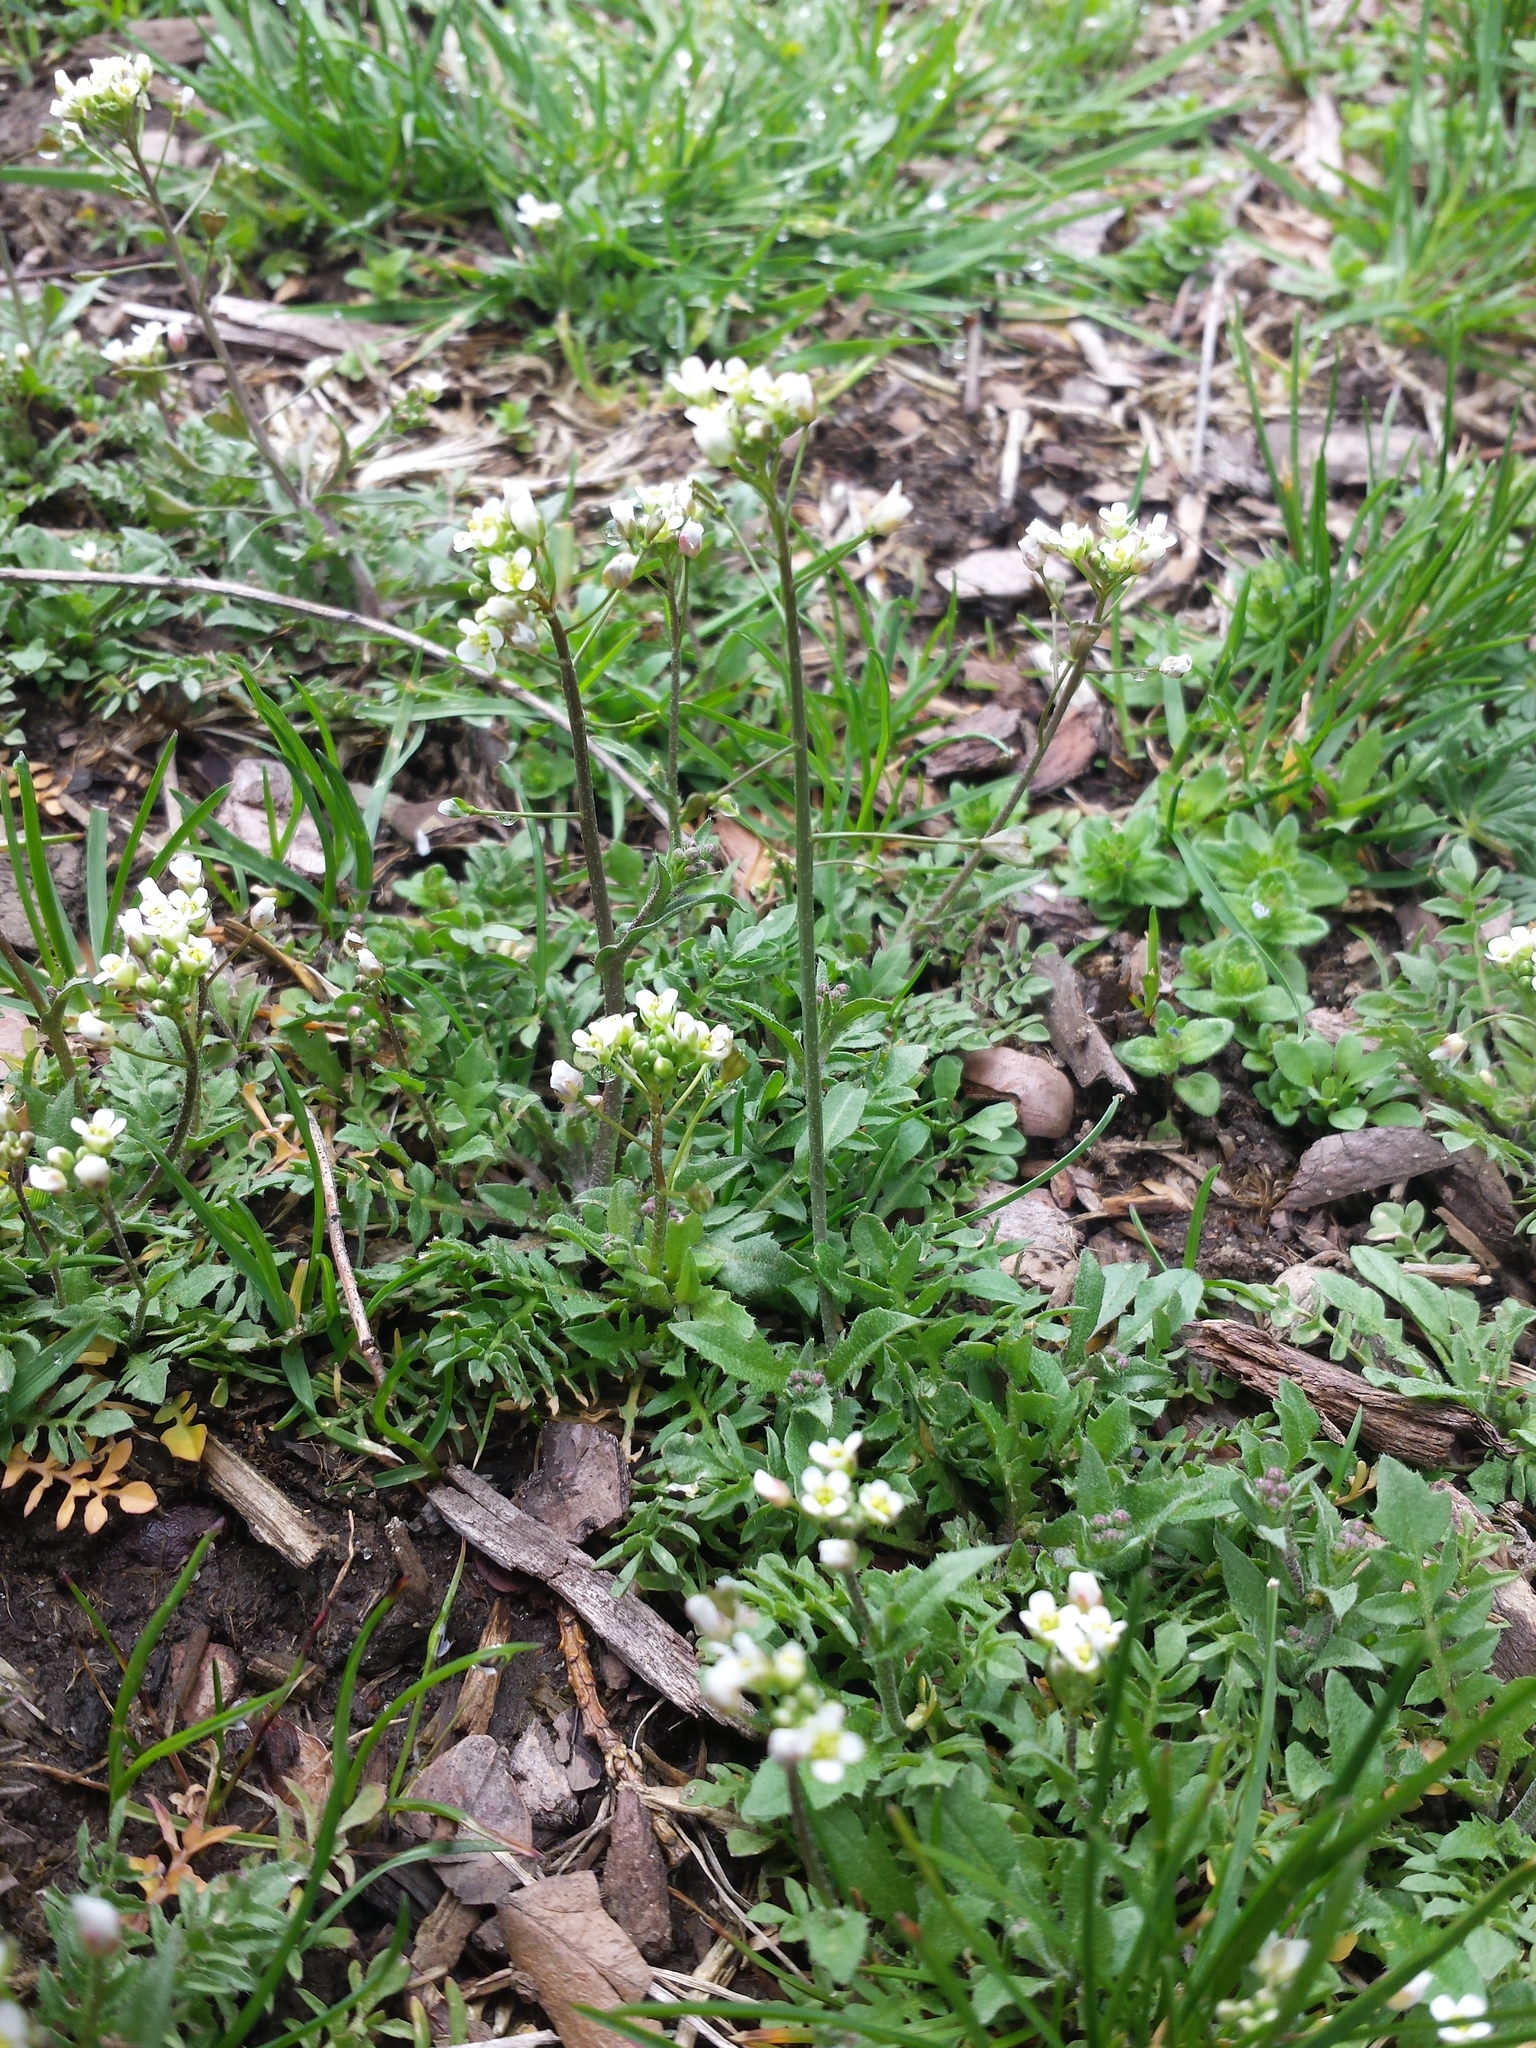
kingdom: Plantae
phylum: Tracheophyta
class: Magnoliopsida
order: Brassicales
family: Brassicaceae
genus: Capsella
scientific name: Capsella bursa-pastoris
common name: Shepherd's purse
